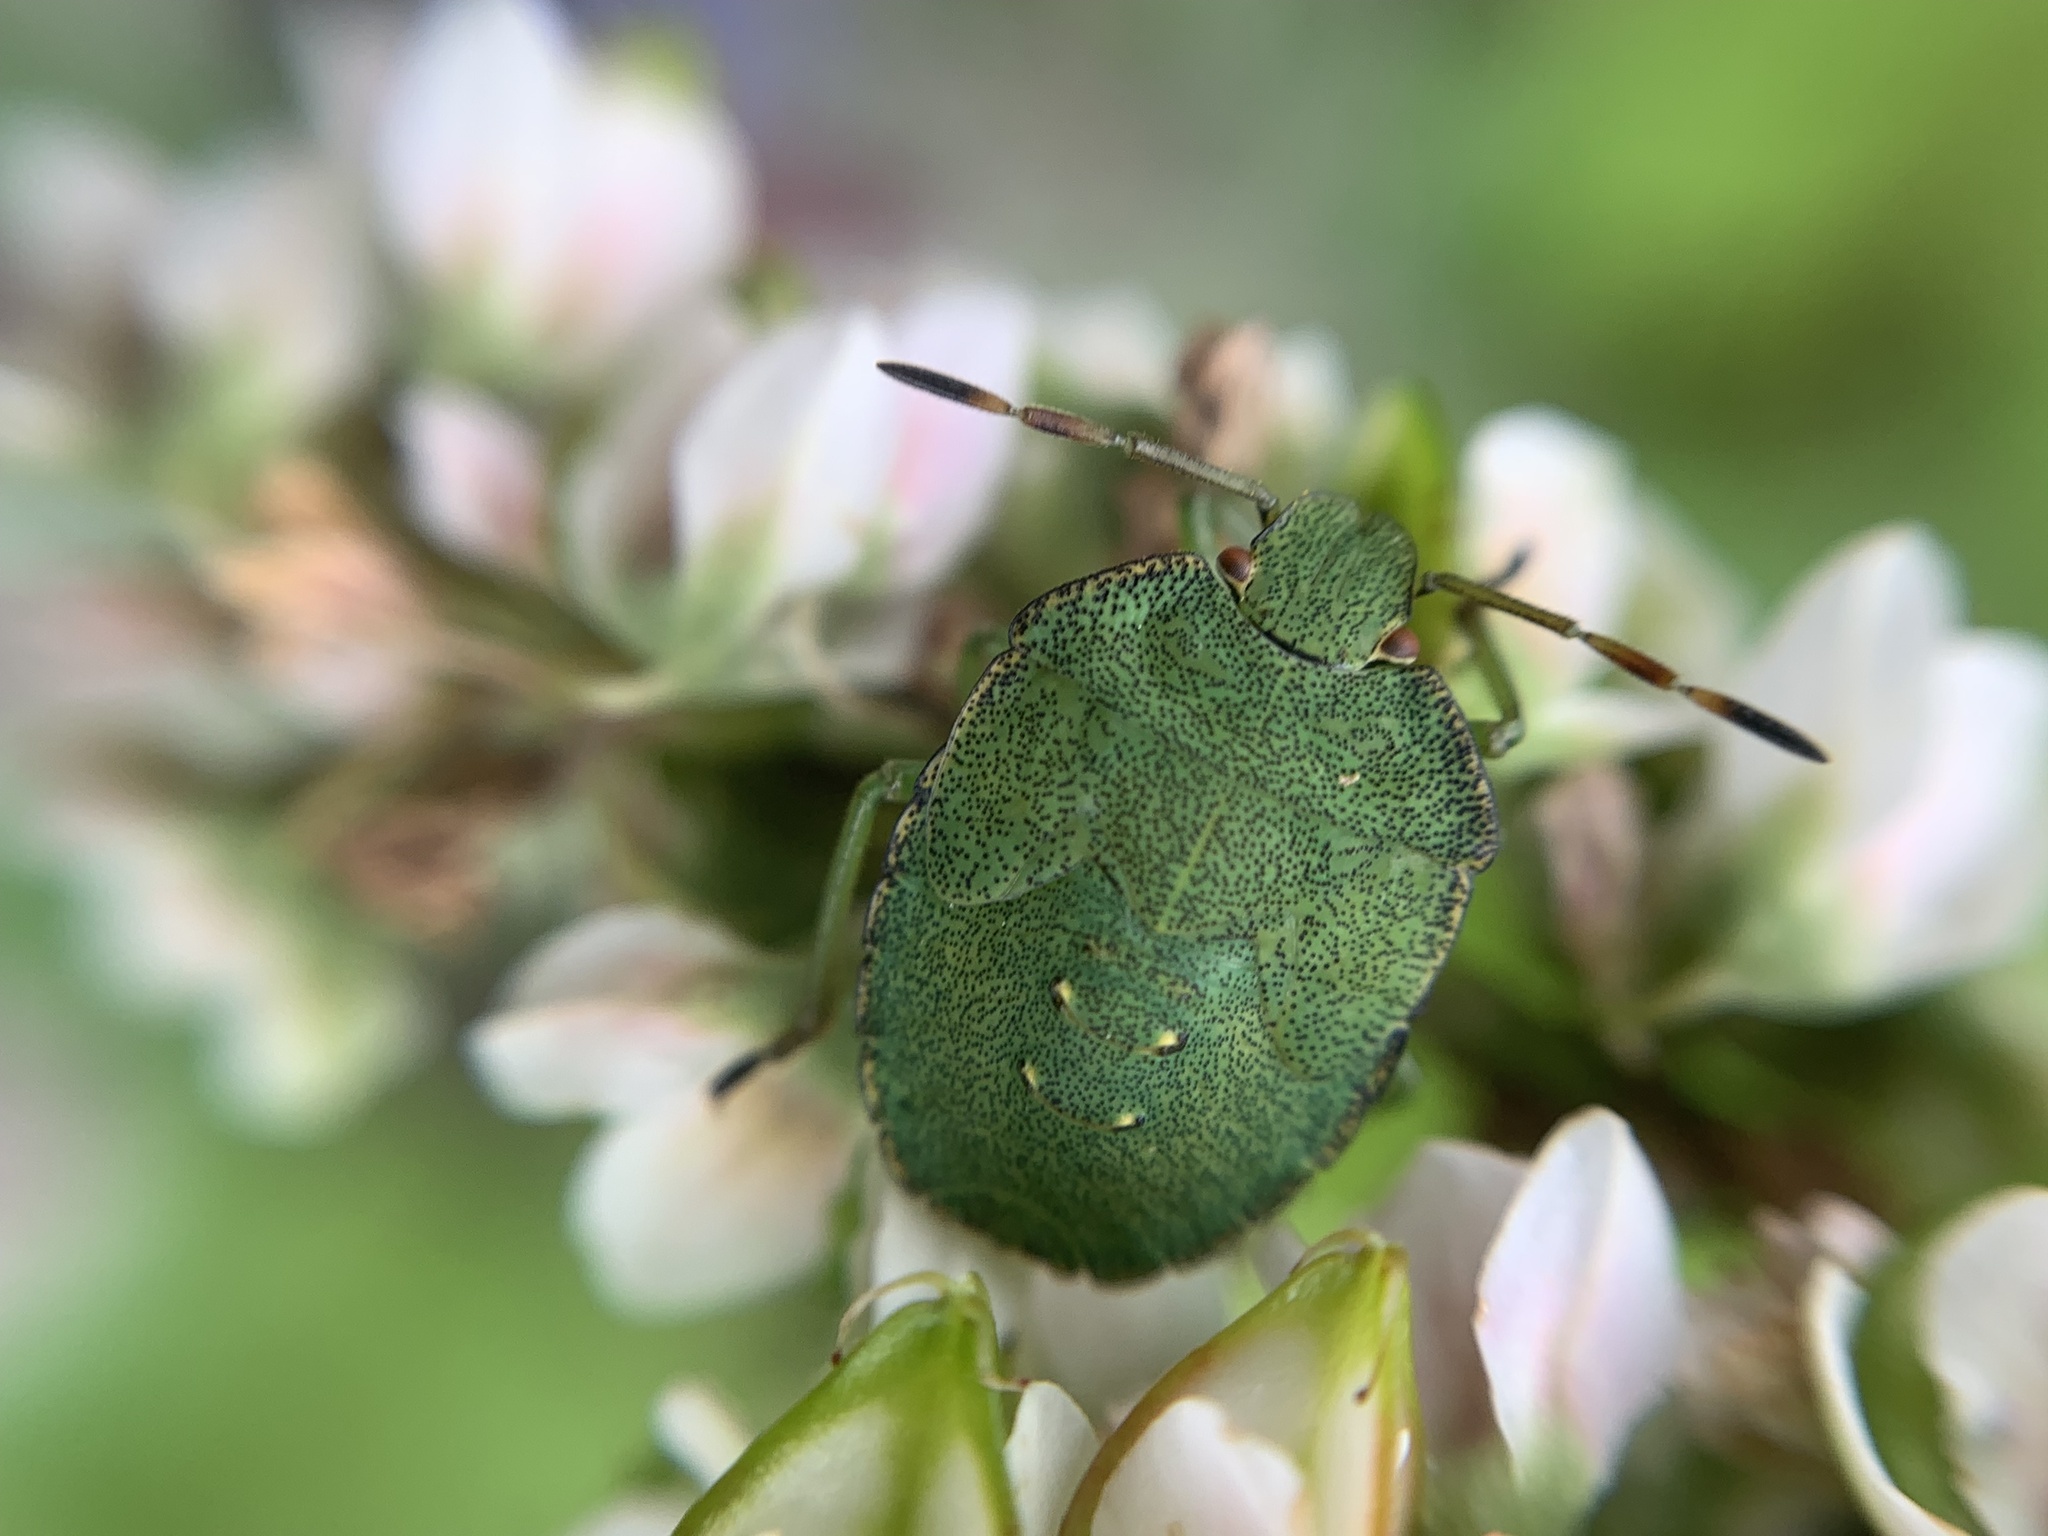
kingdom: Animalia
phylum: Arthropoda
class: Insecta
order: Hemiptera
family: Pentatomidae
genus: Palomena
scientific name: Palomena prasina
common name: Green shieldbug
